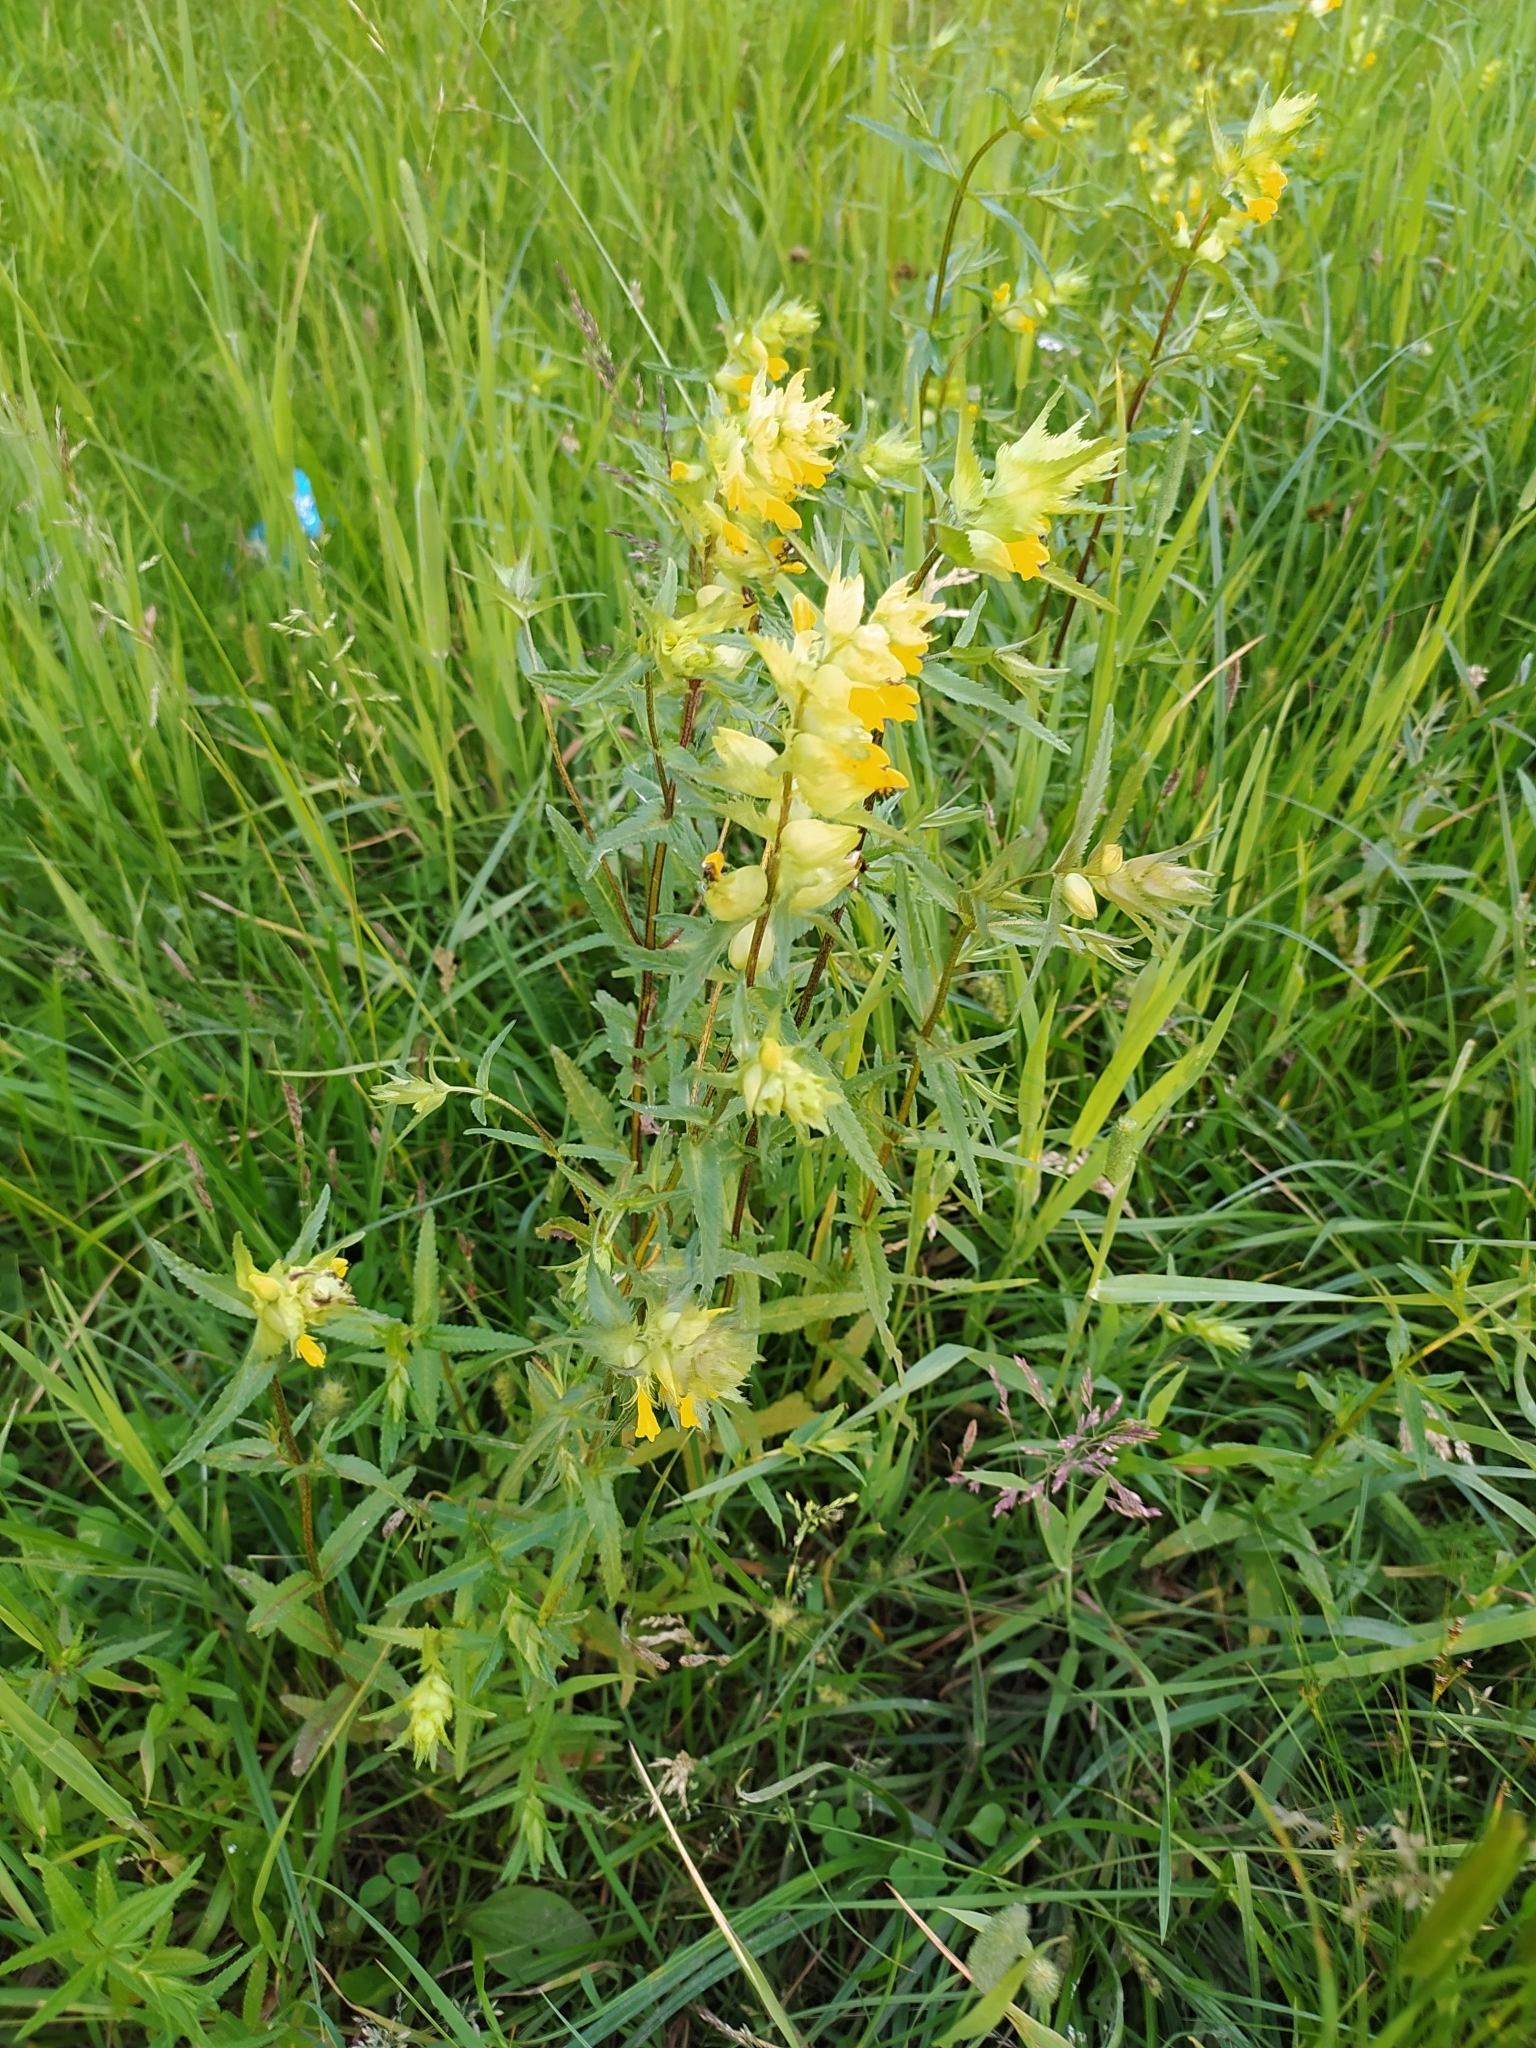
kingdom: Plantae
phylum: Tracheophyta
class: Magnoliopsida
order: Lamiales
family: Orobanchaceae
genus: Rhinanthus
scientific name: Rhinanthus serotinus
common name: Late-flowering yellow rattle
